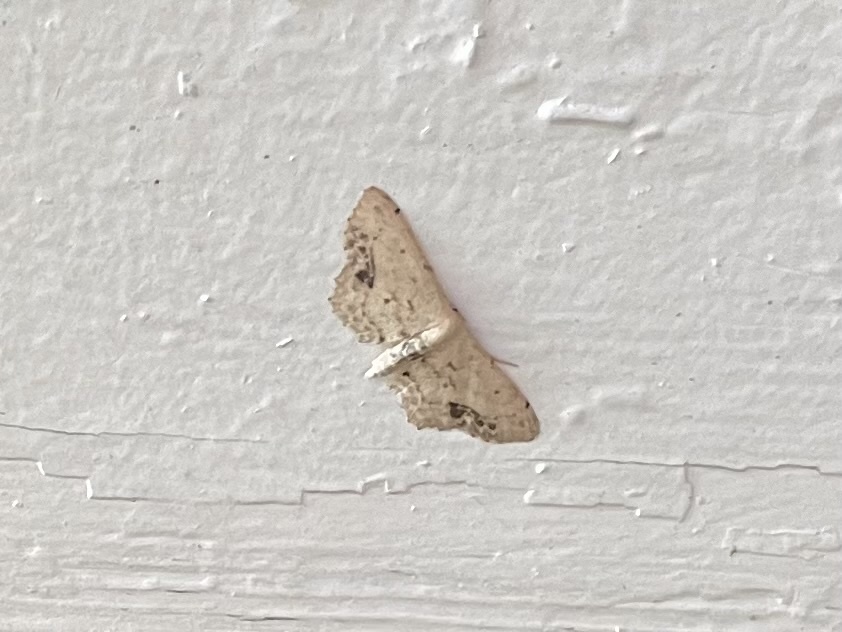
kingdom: Animalia
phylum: Arthropoda
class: Insecta
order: Lepidoptera
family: Geometridae
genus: Idaea
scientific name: Idaea dimidiata
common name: Single-dotted wave
